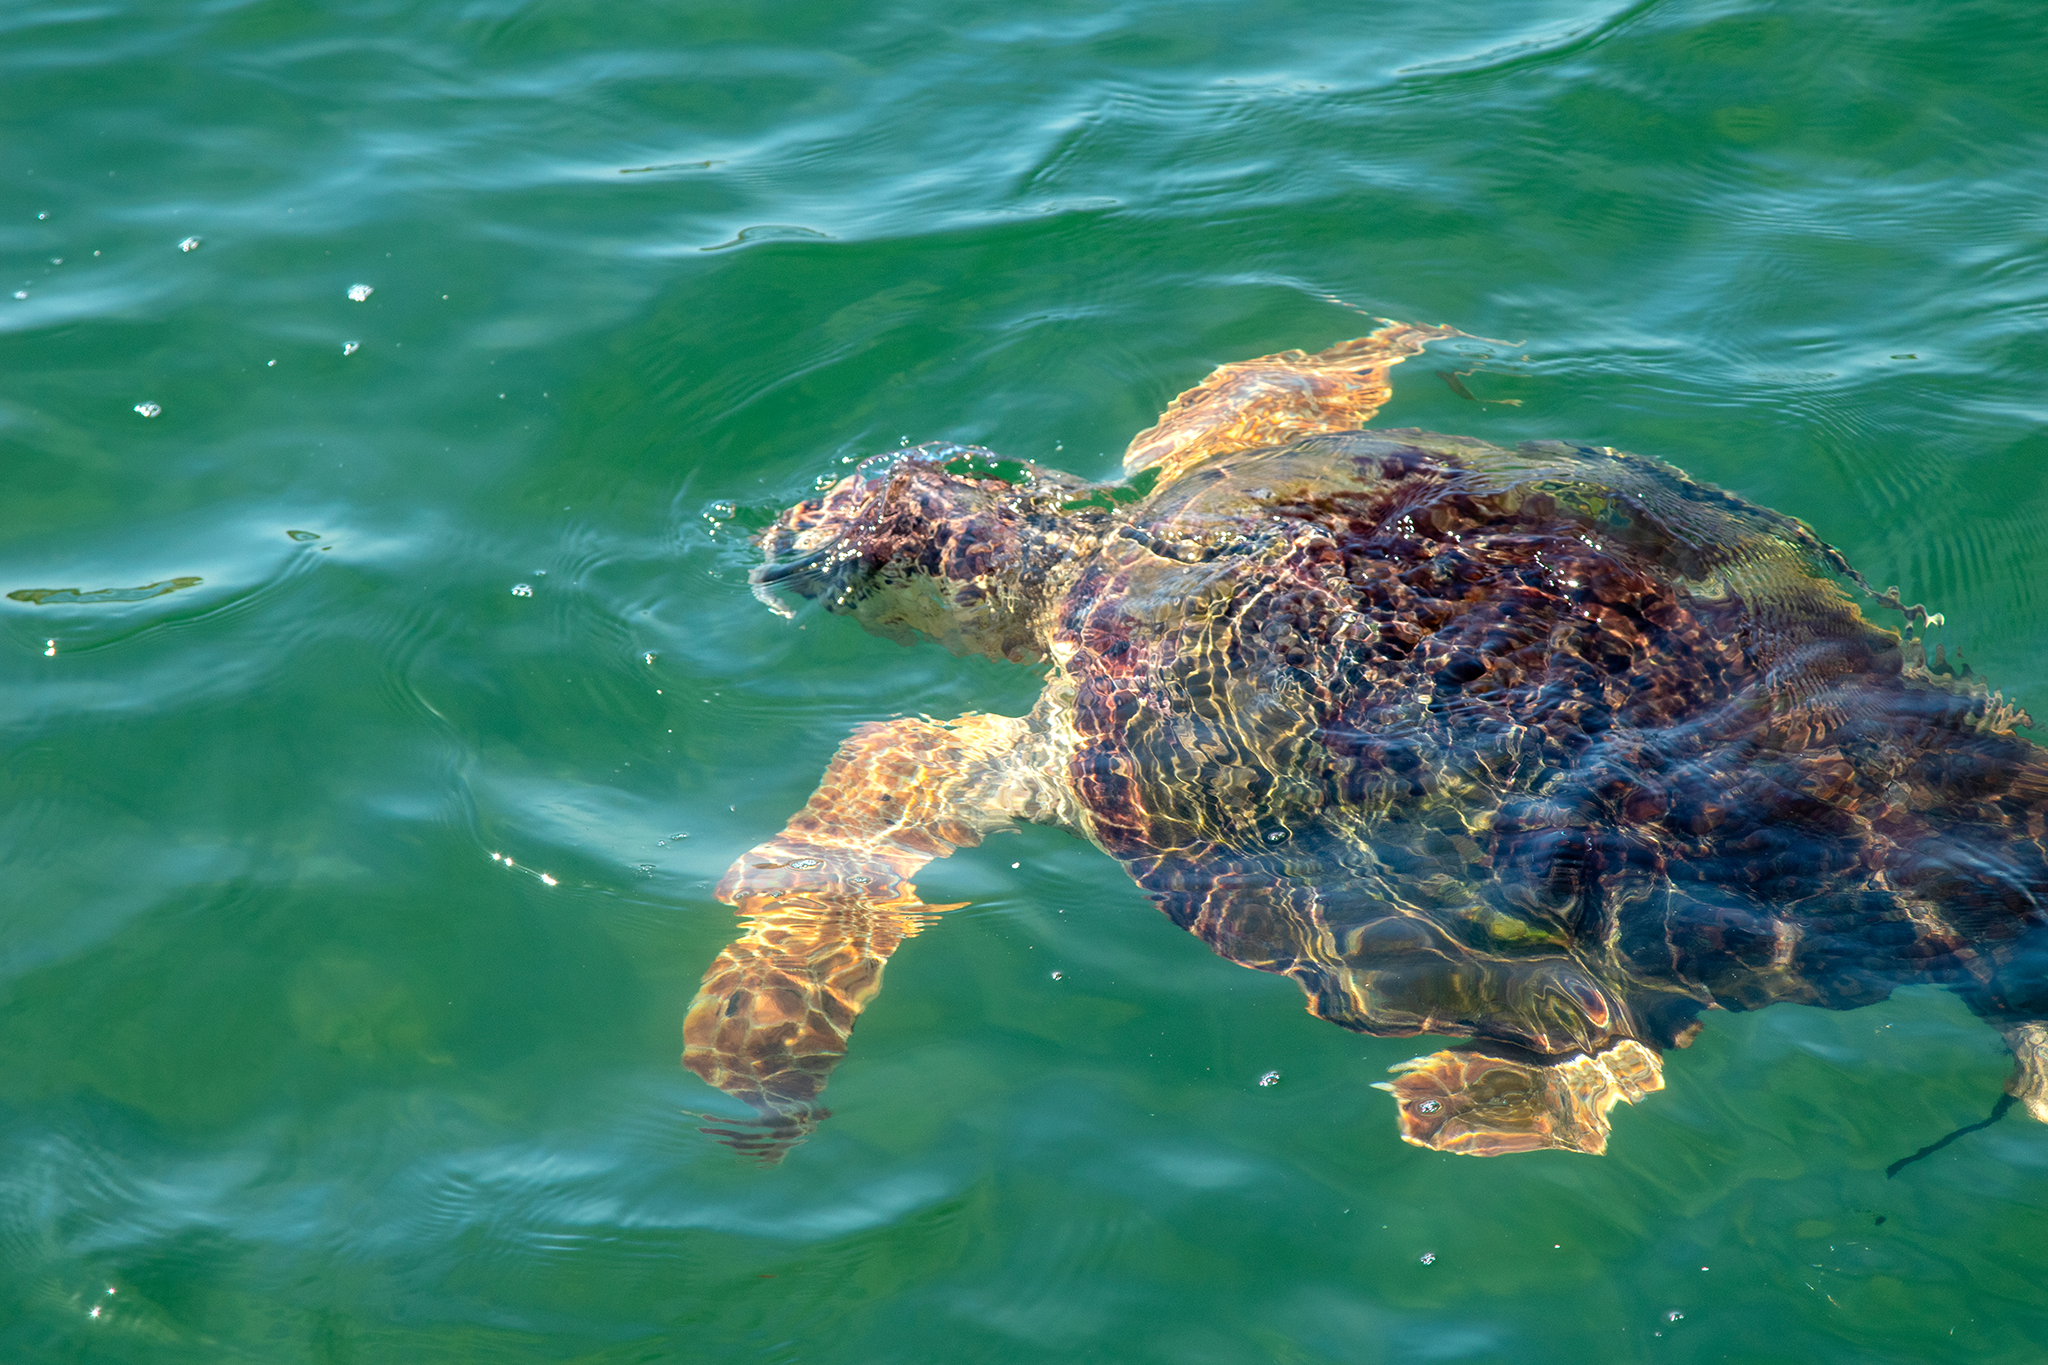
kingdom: Animalia
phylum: Chordata
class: Testudines
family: Cheloniidae
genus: Caretta
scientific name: Caretta caretta
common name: Loggerhead sea turtle
